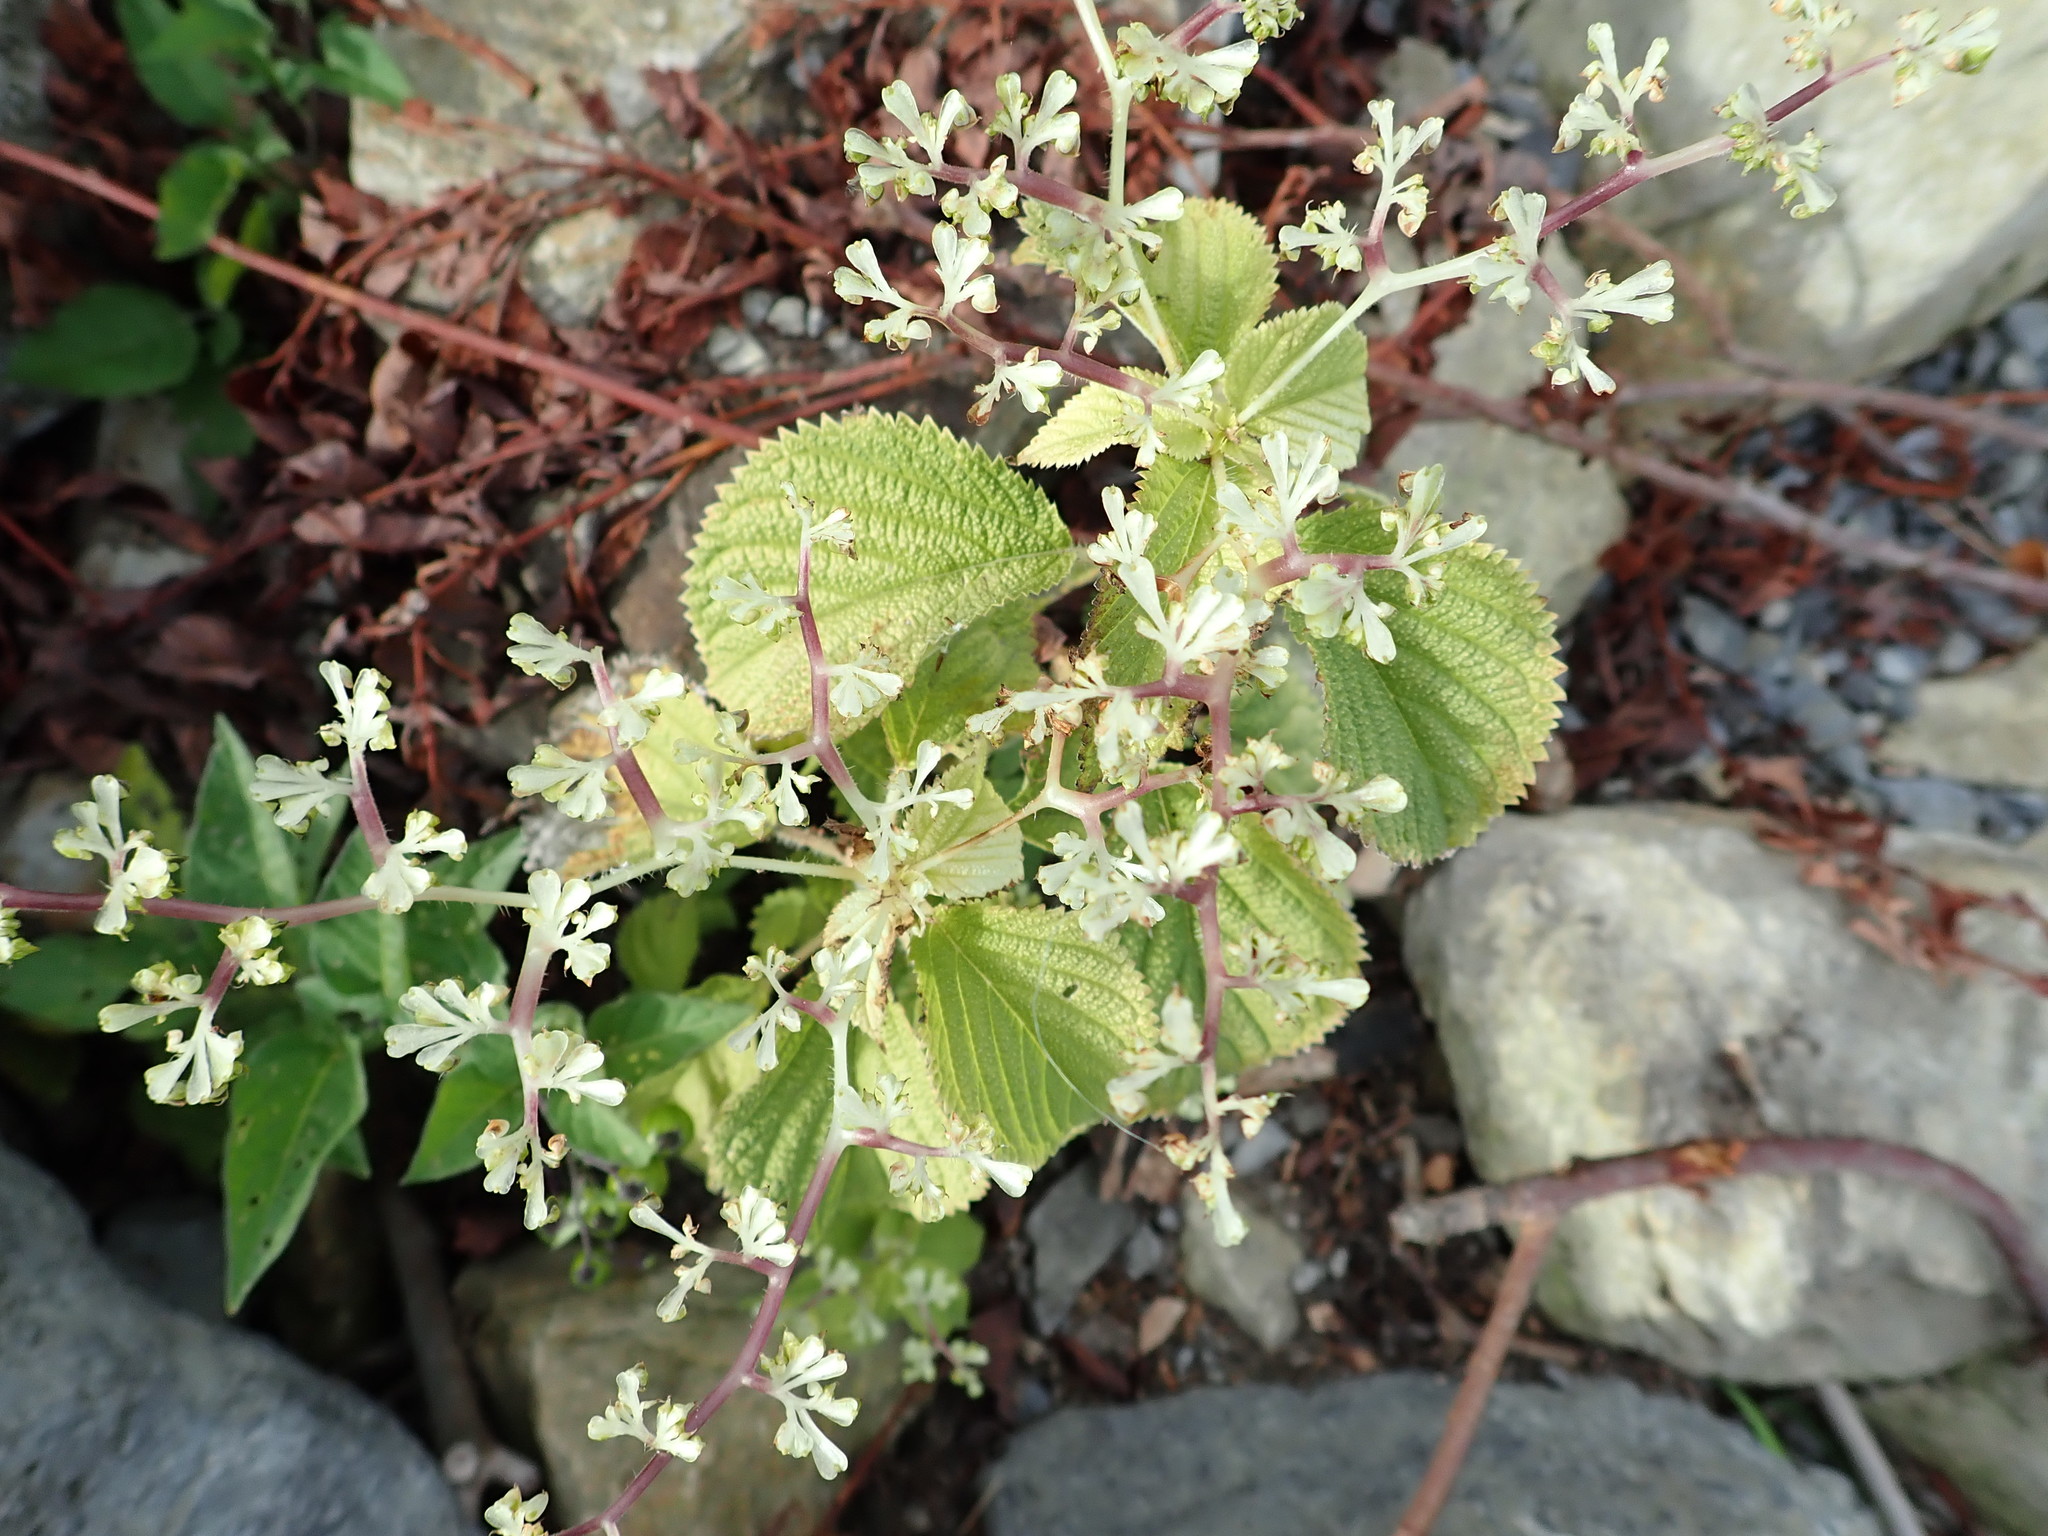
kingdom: Plantae
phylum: Tracheophyta
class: Magnoliopsida
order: Rosales
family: Urticaceae
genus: Laportea
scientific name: Laportea canadensis
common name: Canada nettle
